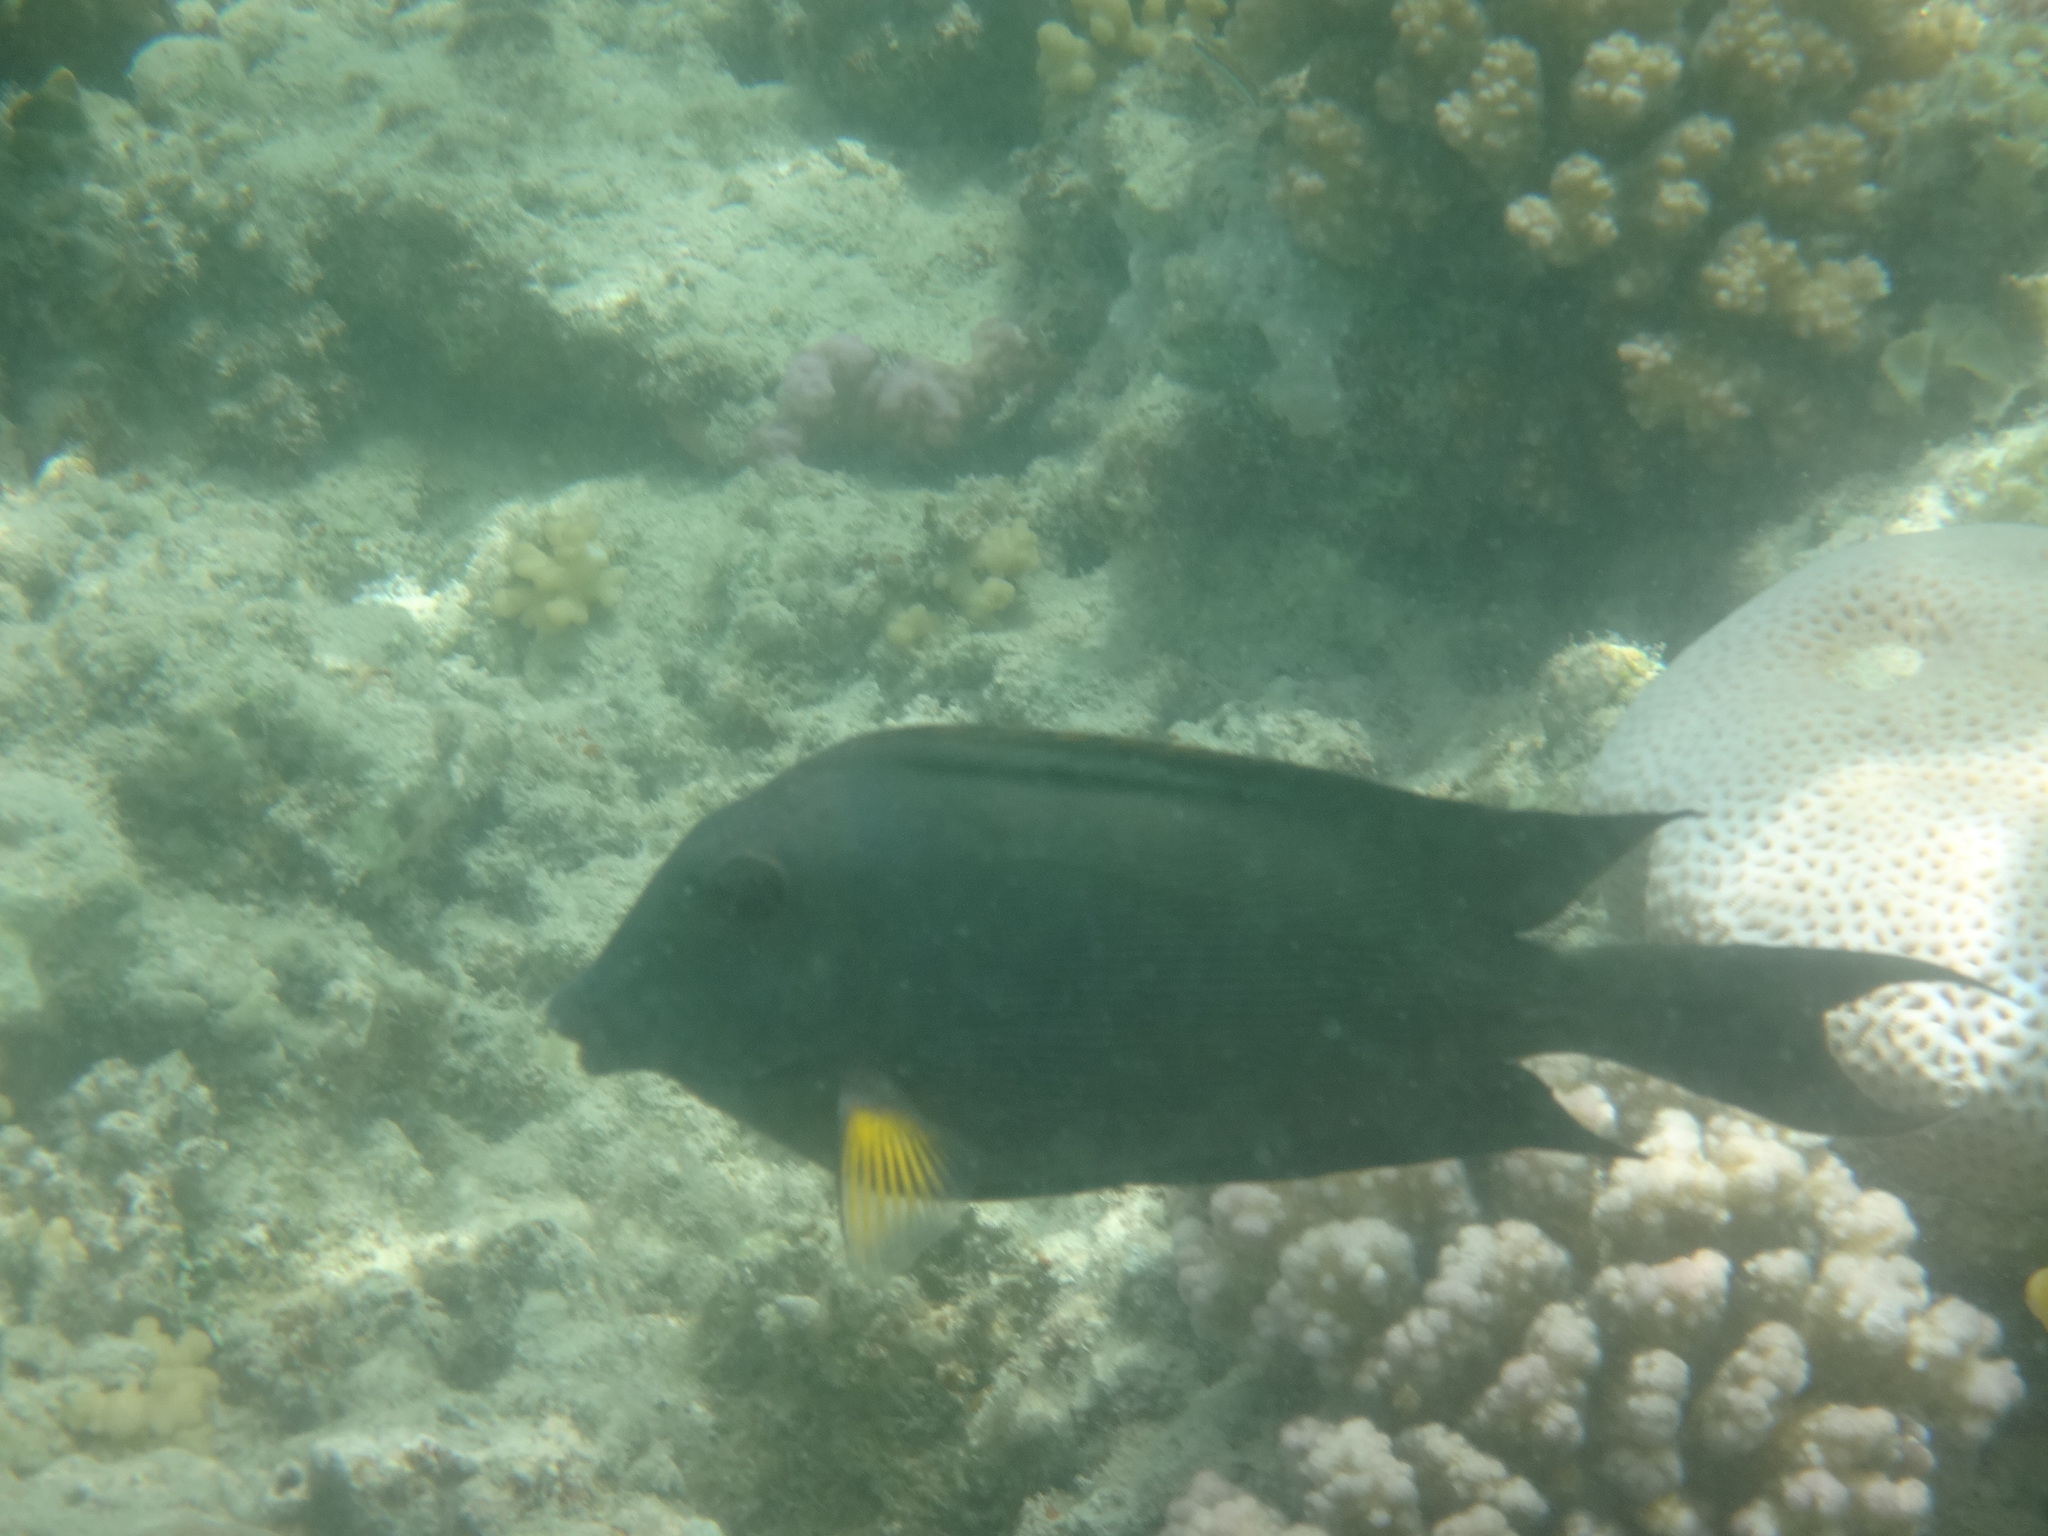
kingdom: Animalia
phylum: Chordata
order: Perciformes
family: Acanthuridae
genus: Ctenochaetus
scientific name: Ctenochaetus striatus
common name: Bristle-toothed surgeonfish
